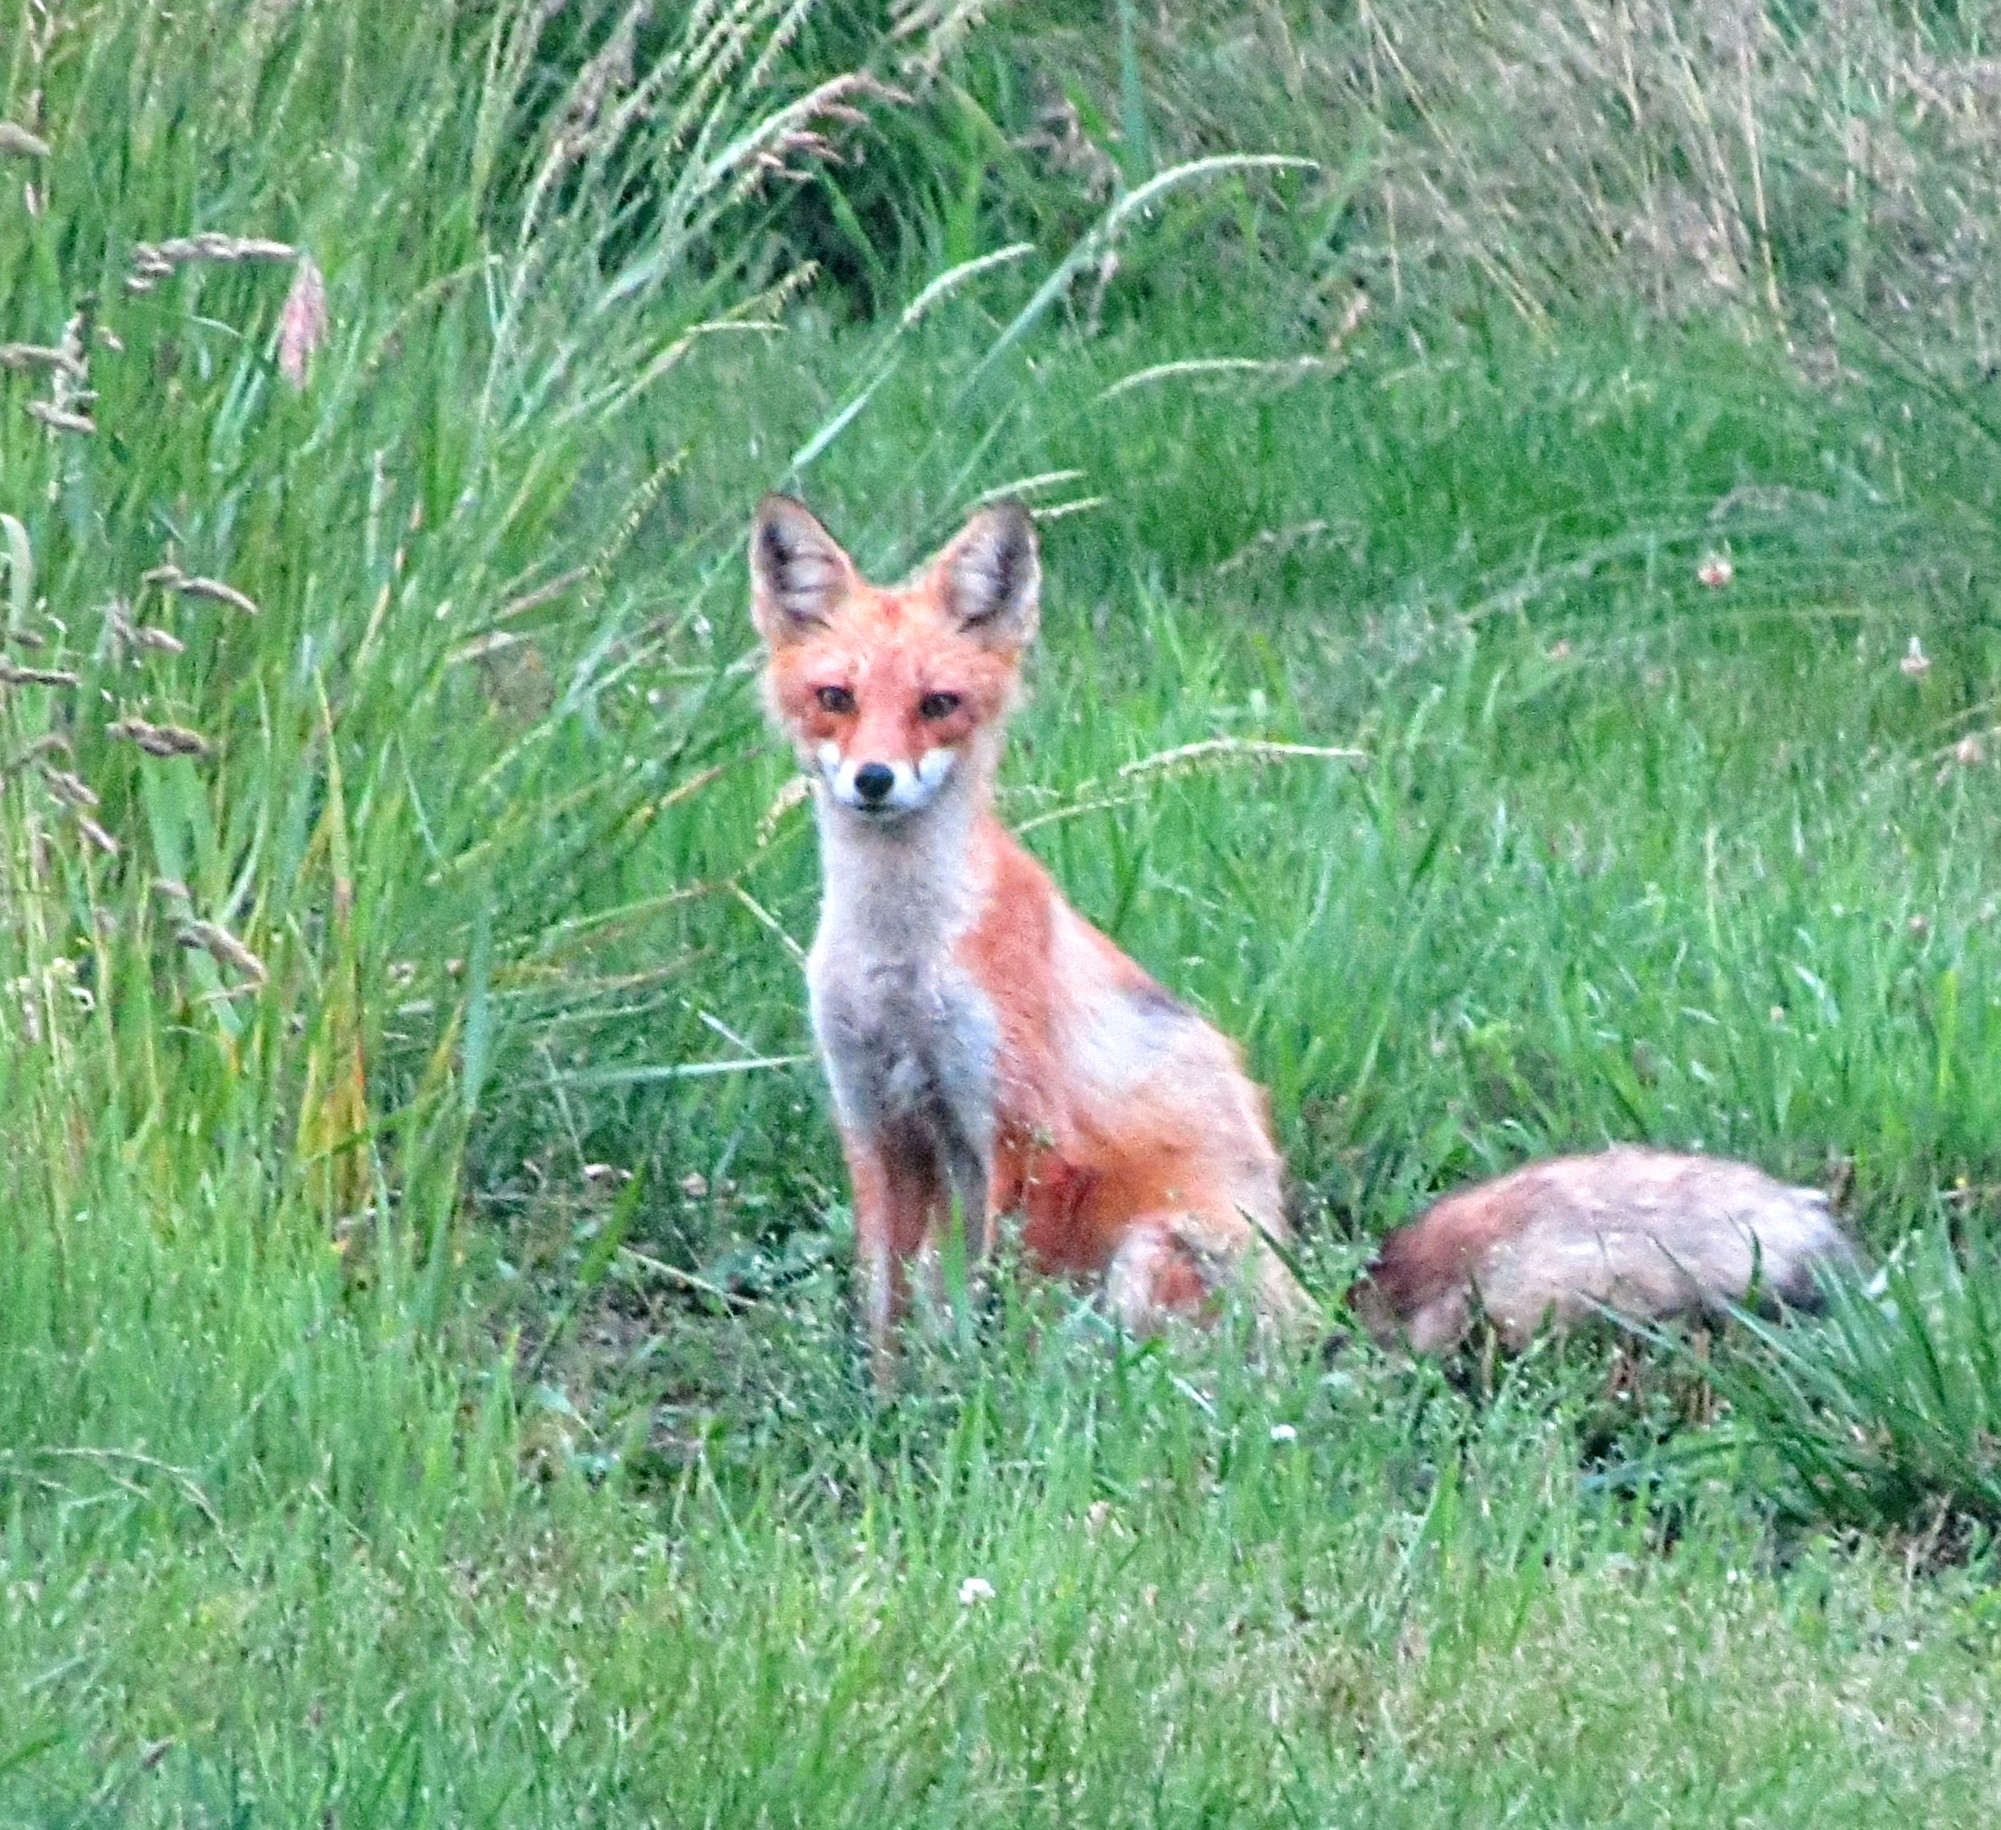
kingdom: Animalia
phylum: Chordata
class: Mammalia
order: Carnivora
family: Canidae
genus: Vulpes
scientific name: Vulpes vulpes
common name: Red fox
